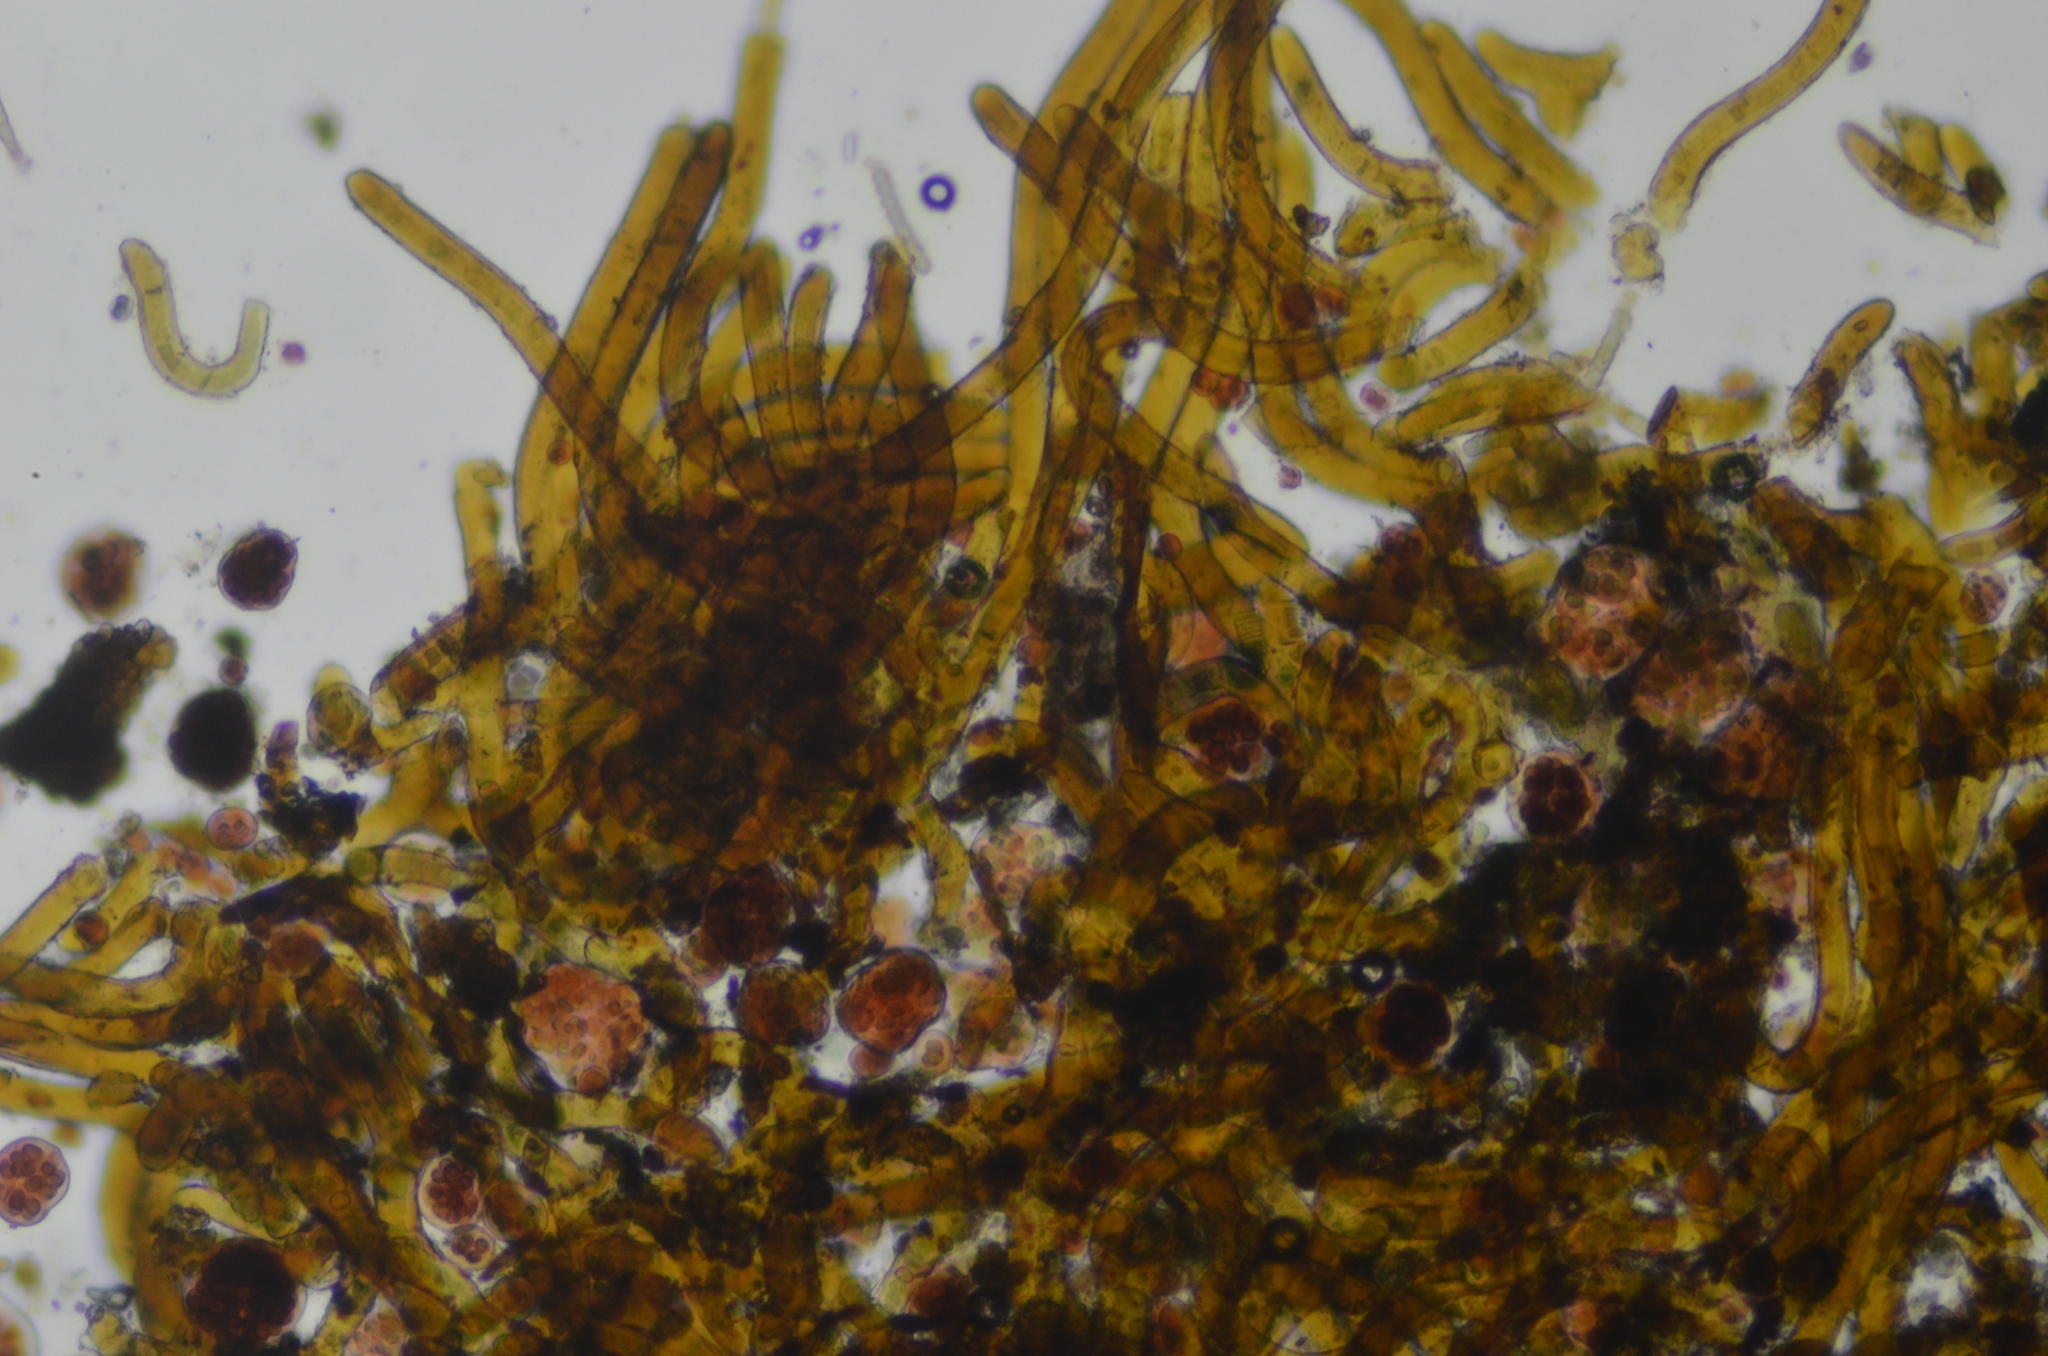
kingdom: Bacteria
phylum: Cyanobacteria
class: Cyanobacteriia
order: Cyanobacteriales
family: Chroococcidiopsidaceae
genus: Gloeocapsopsis
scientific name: Gloeocapsopsis magma
